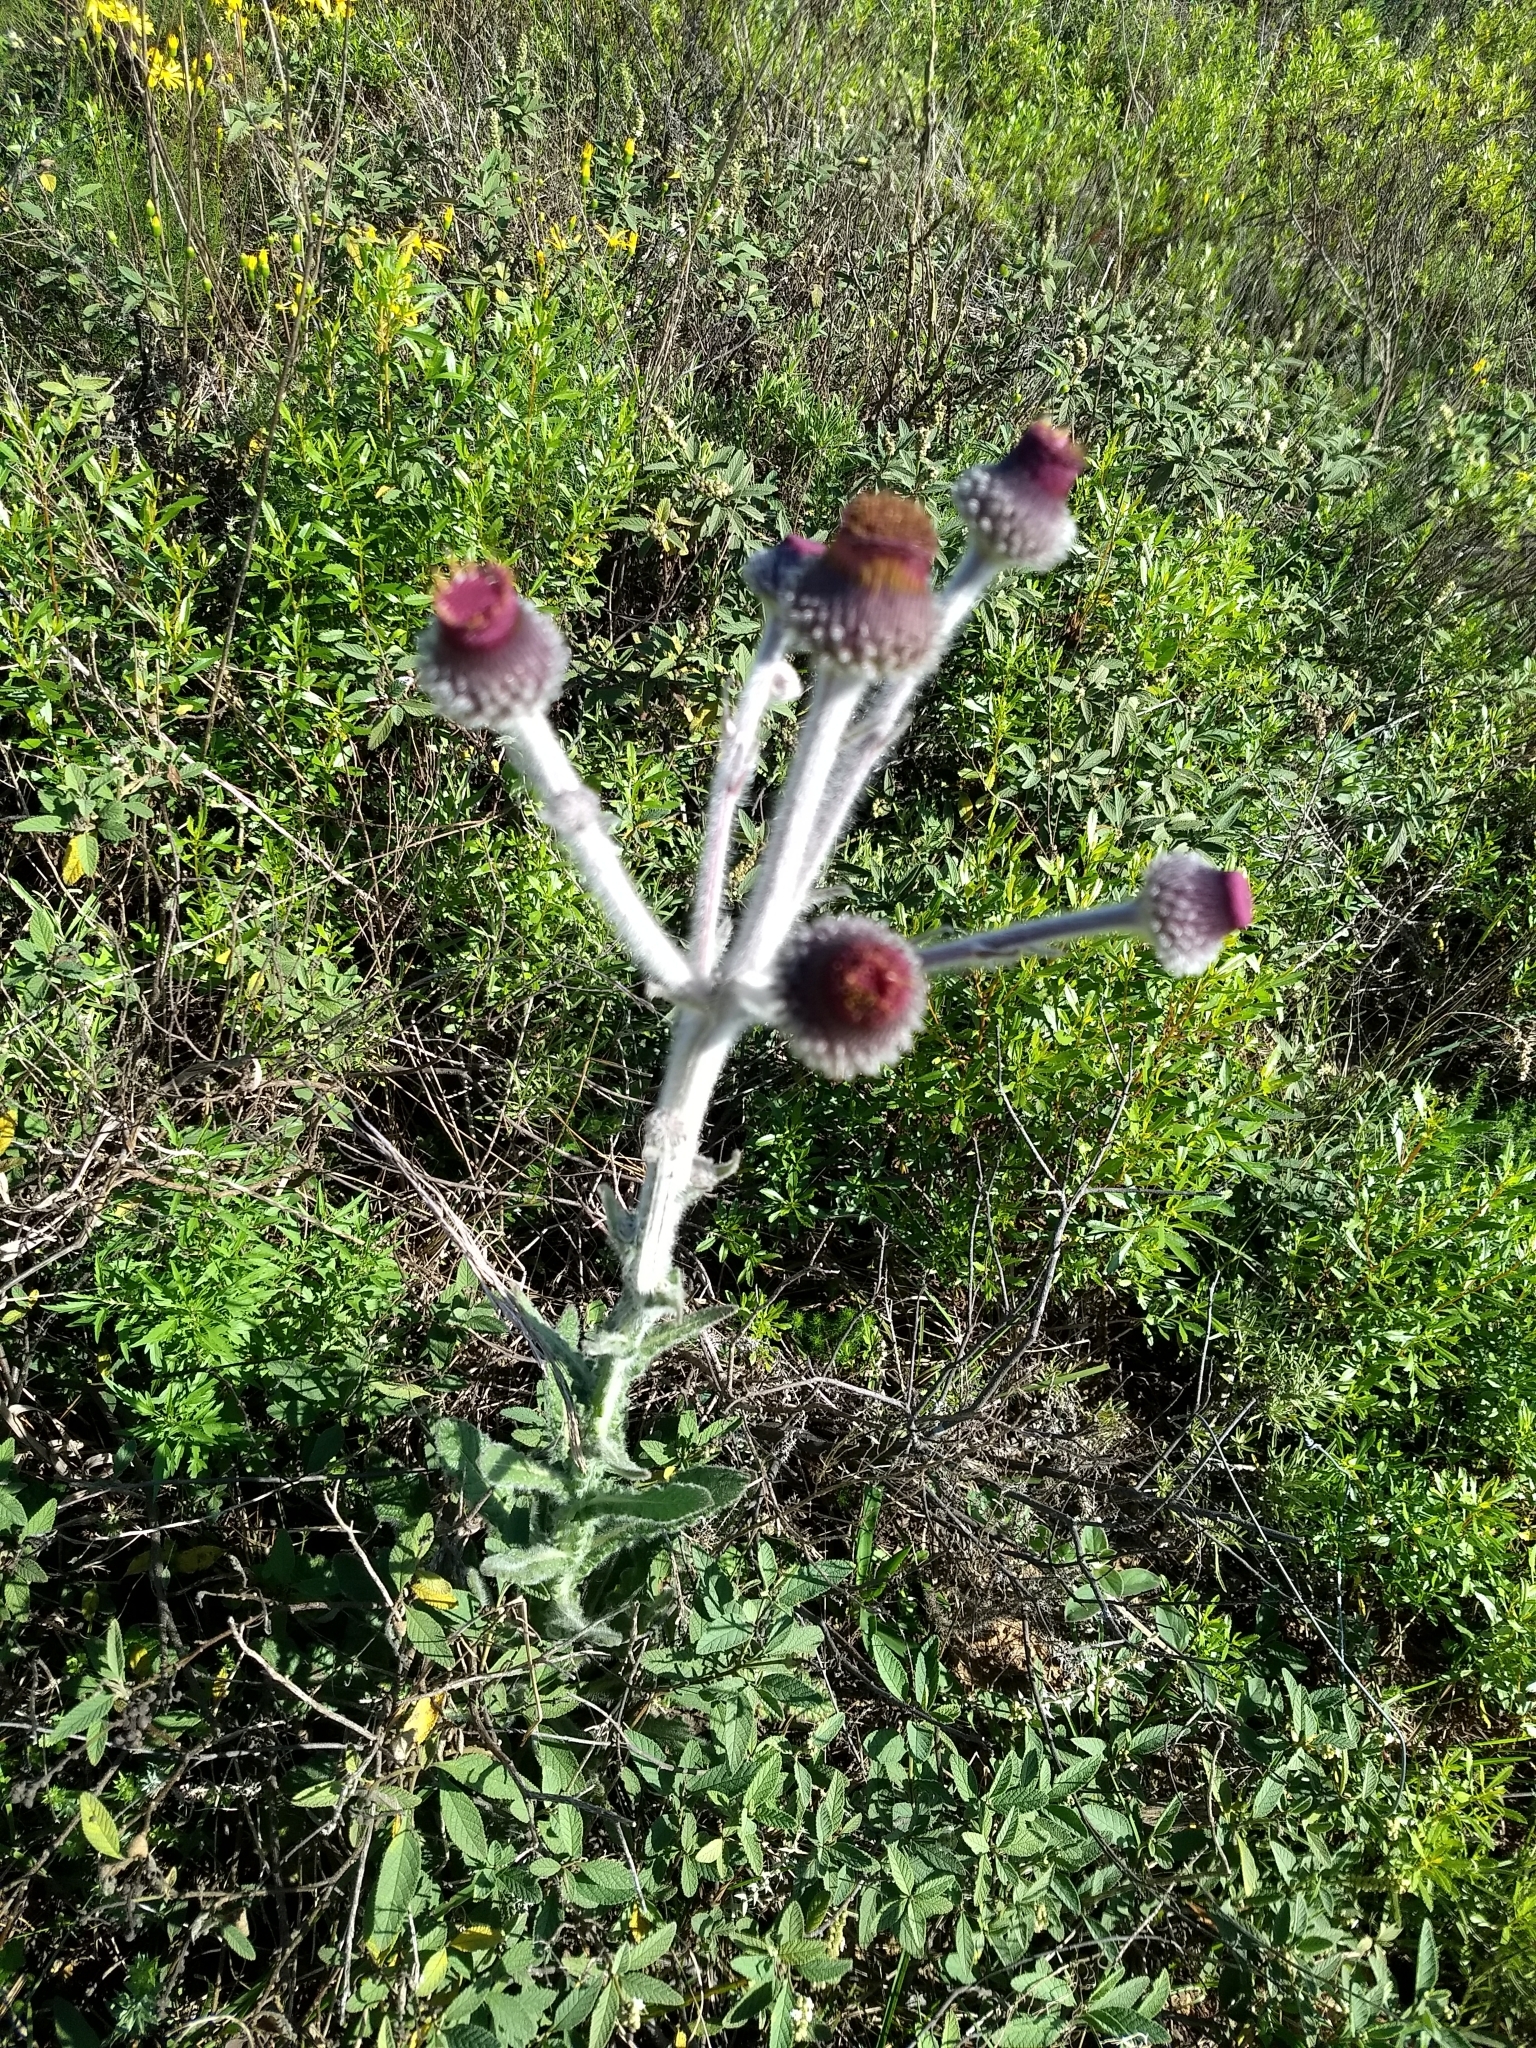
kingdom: Plantae
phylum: Tracheophyta
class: Magnoliopsida
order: Asterales
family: Asteraceae
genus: Stenachaenium
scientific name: Stenachaenium riedelii
